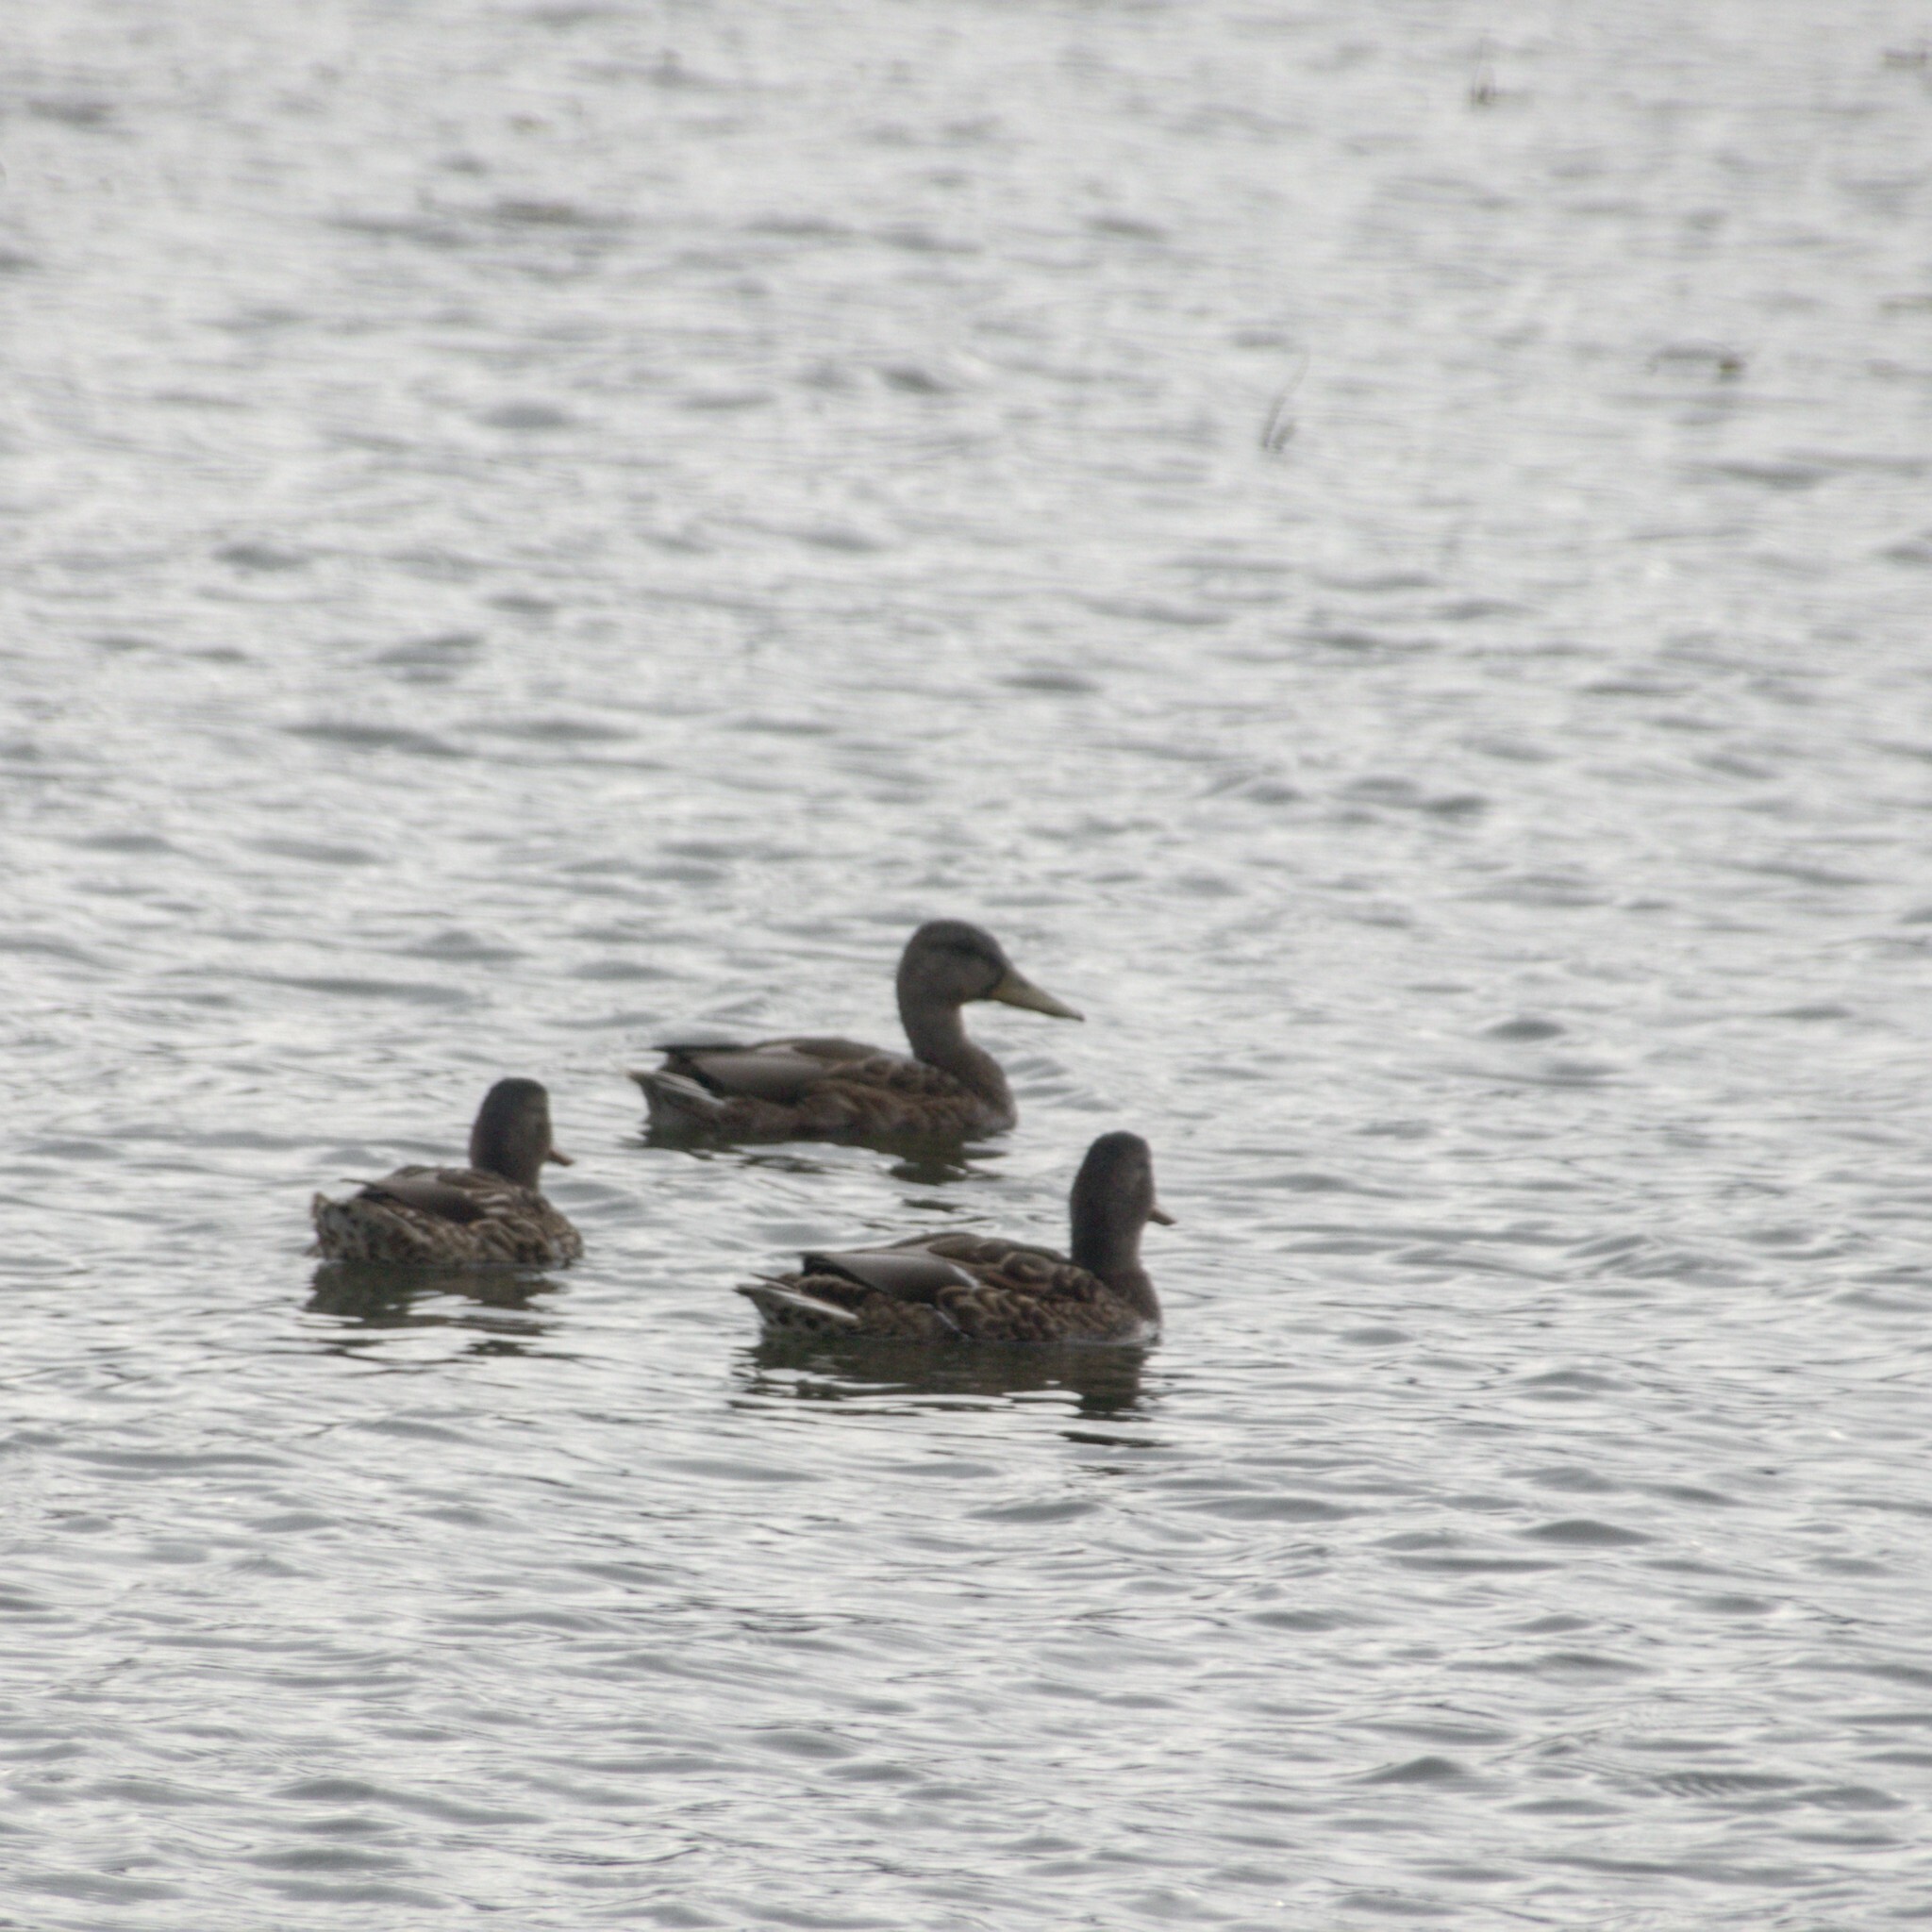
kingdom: Animalia
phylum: Chordata
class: Aves
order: Anseriformes
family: Anatidae
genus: Anas
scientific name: Anas platyrhynchos
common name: Mallard
